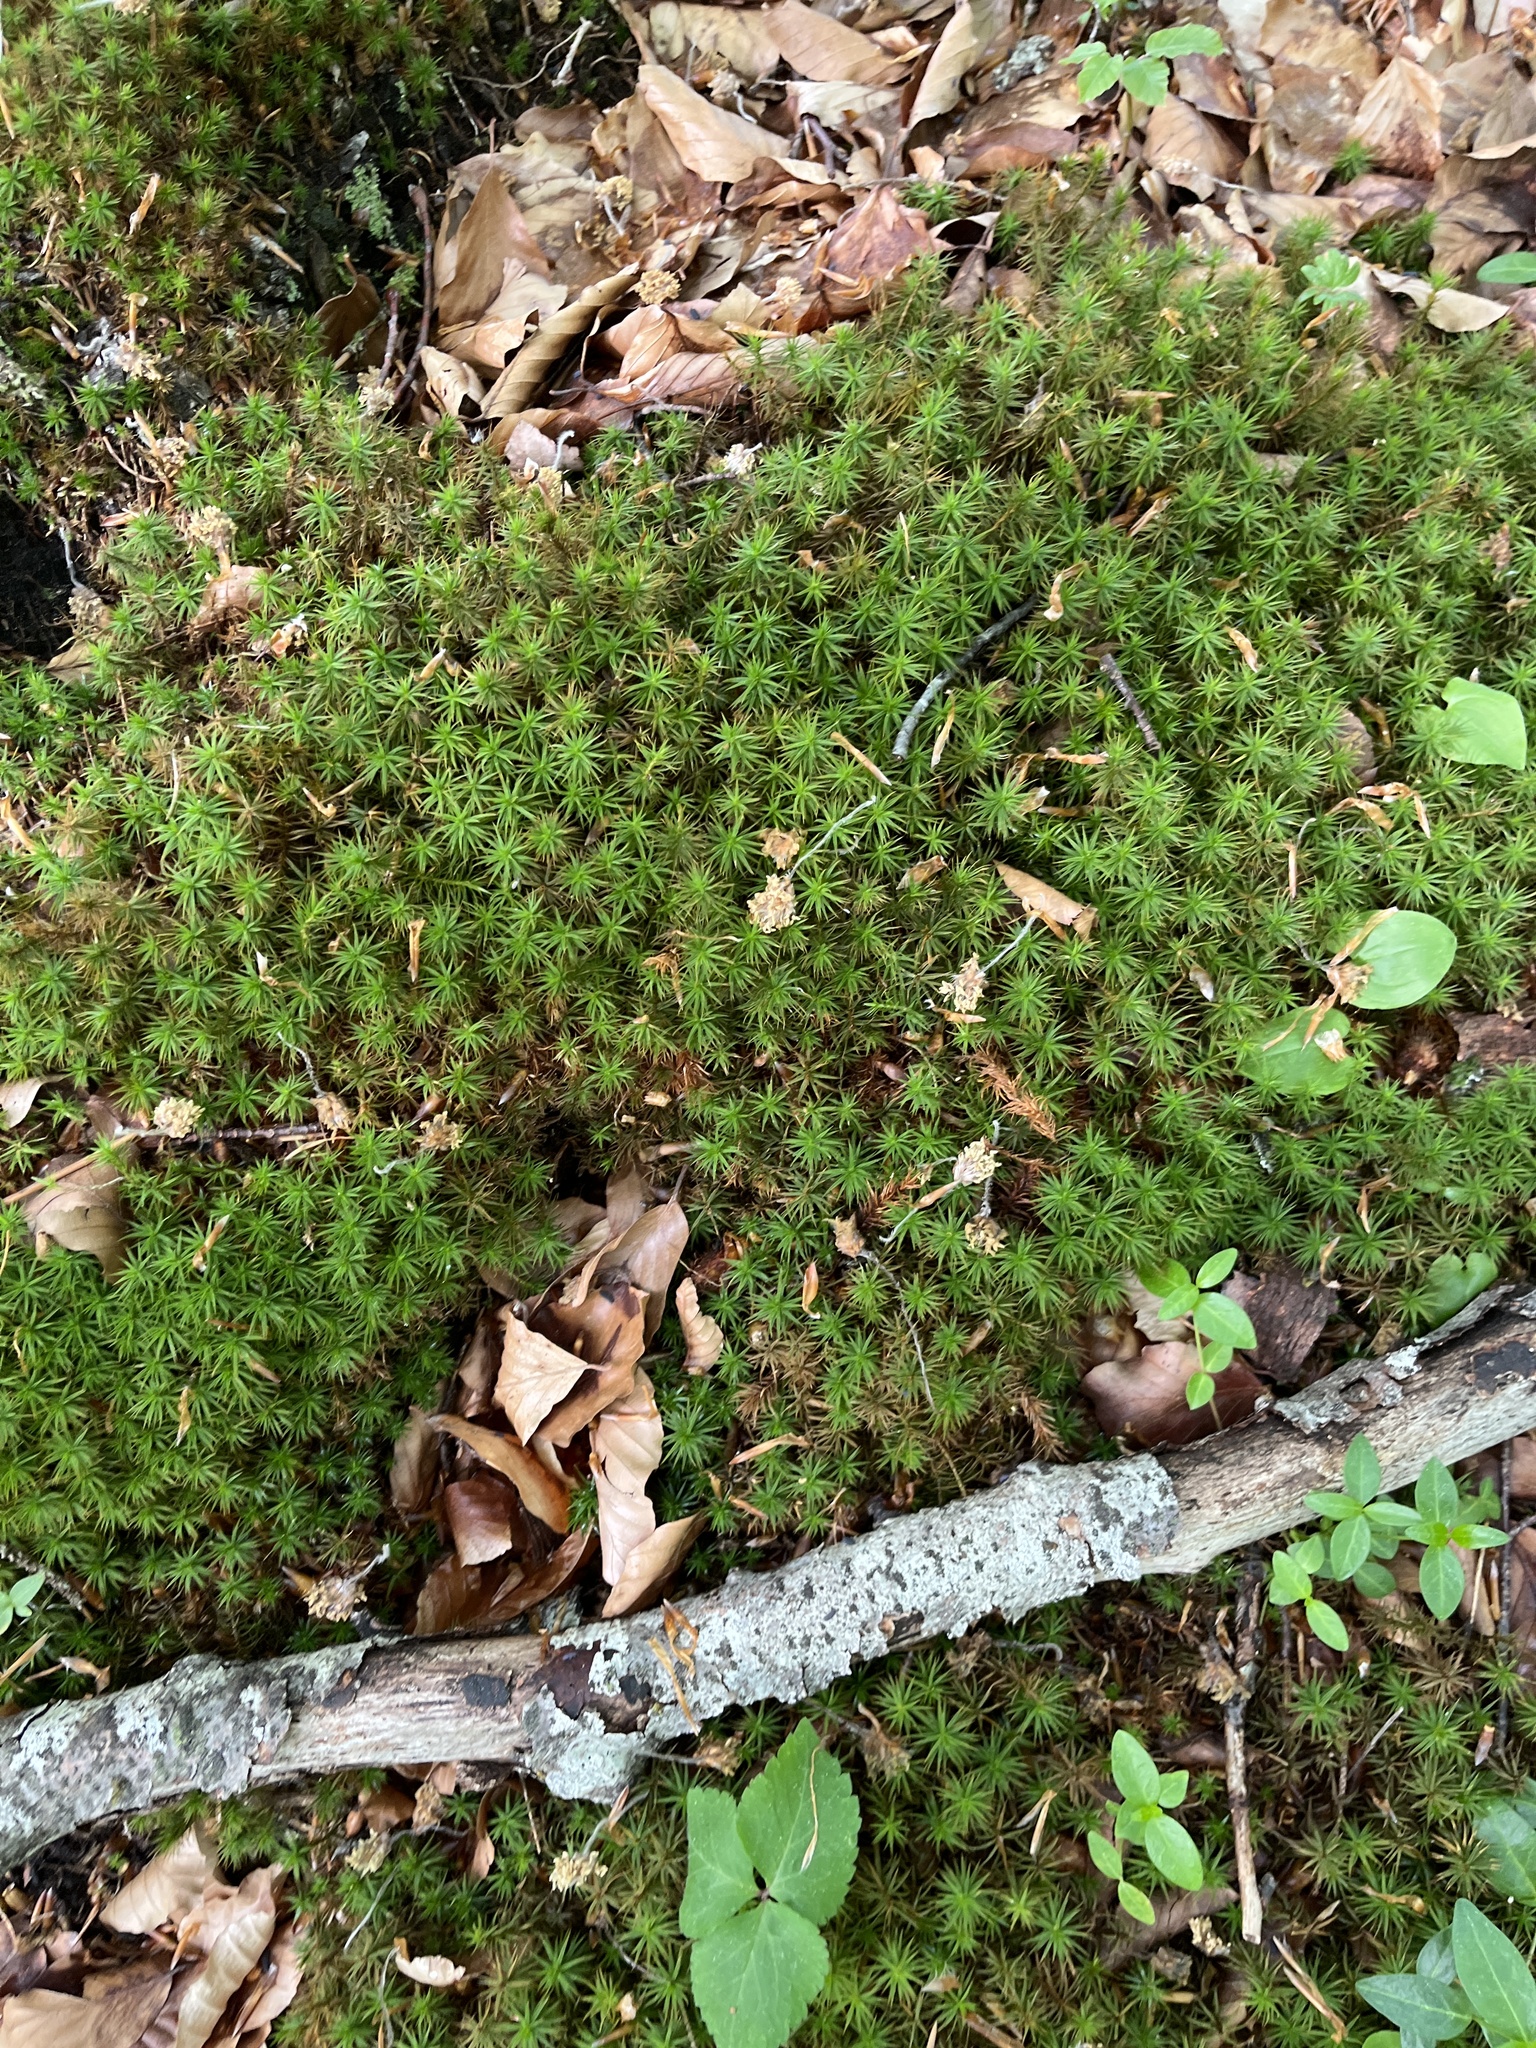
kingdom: Plantae
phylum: Bryophyta
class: Polytrichopsida
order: Polytrichales
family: Polytrichaceae
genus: Polytrichum
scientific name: Polytrichum formosum
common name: Bank haircap moss
